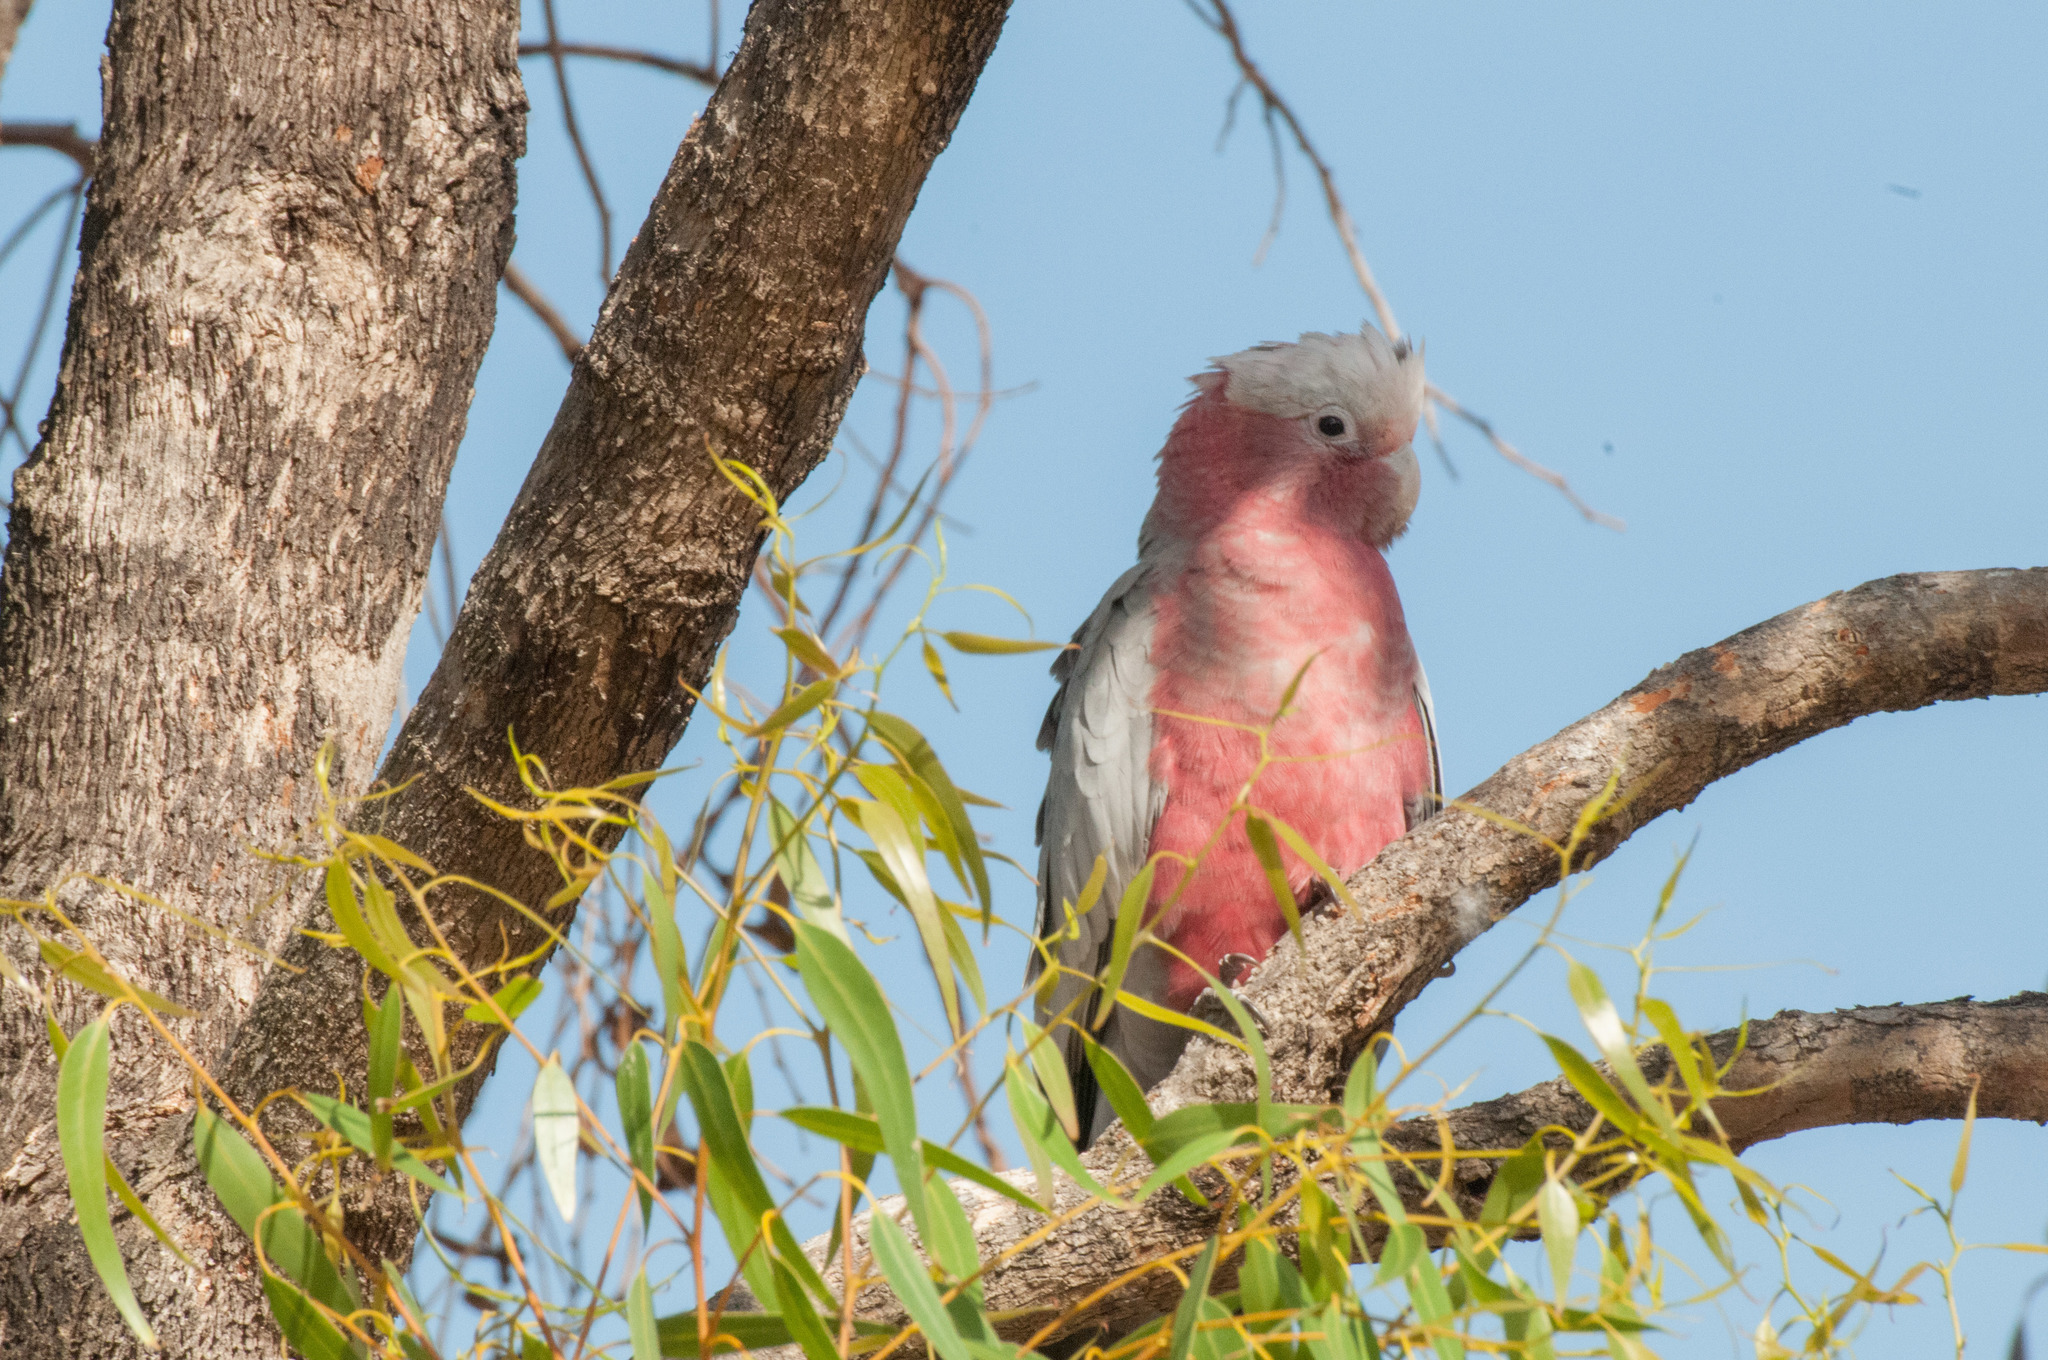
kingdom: Animalia
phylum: Chordata
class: Aves
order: Psittaciformes
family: Psittacidae
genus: Eolophus
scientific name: Eolophus roseicapilla
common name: Galah
